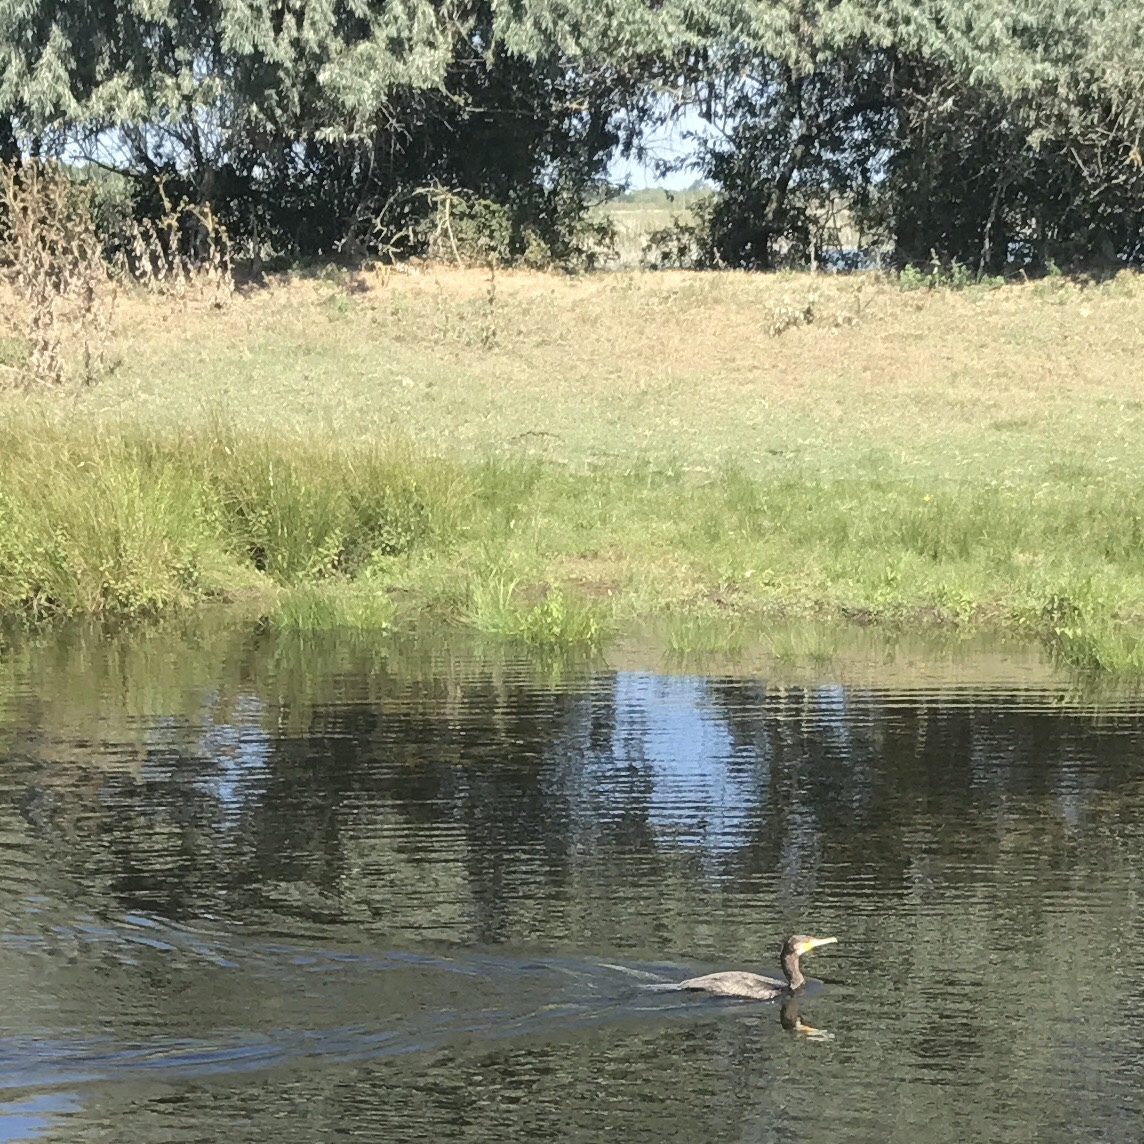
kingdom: Animalia
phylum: Chordata
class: Aves
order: Suliformes
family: Phalacrocoracidae
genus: Phalacrocorax
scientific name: Phalacrocorax carbo
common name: Great cormorant
